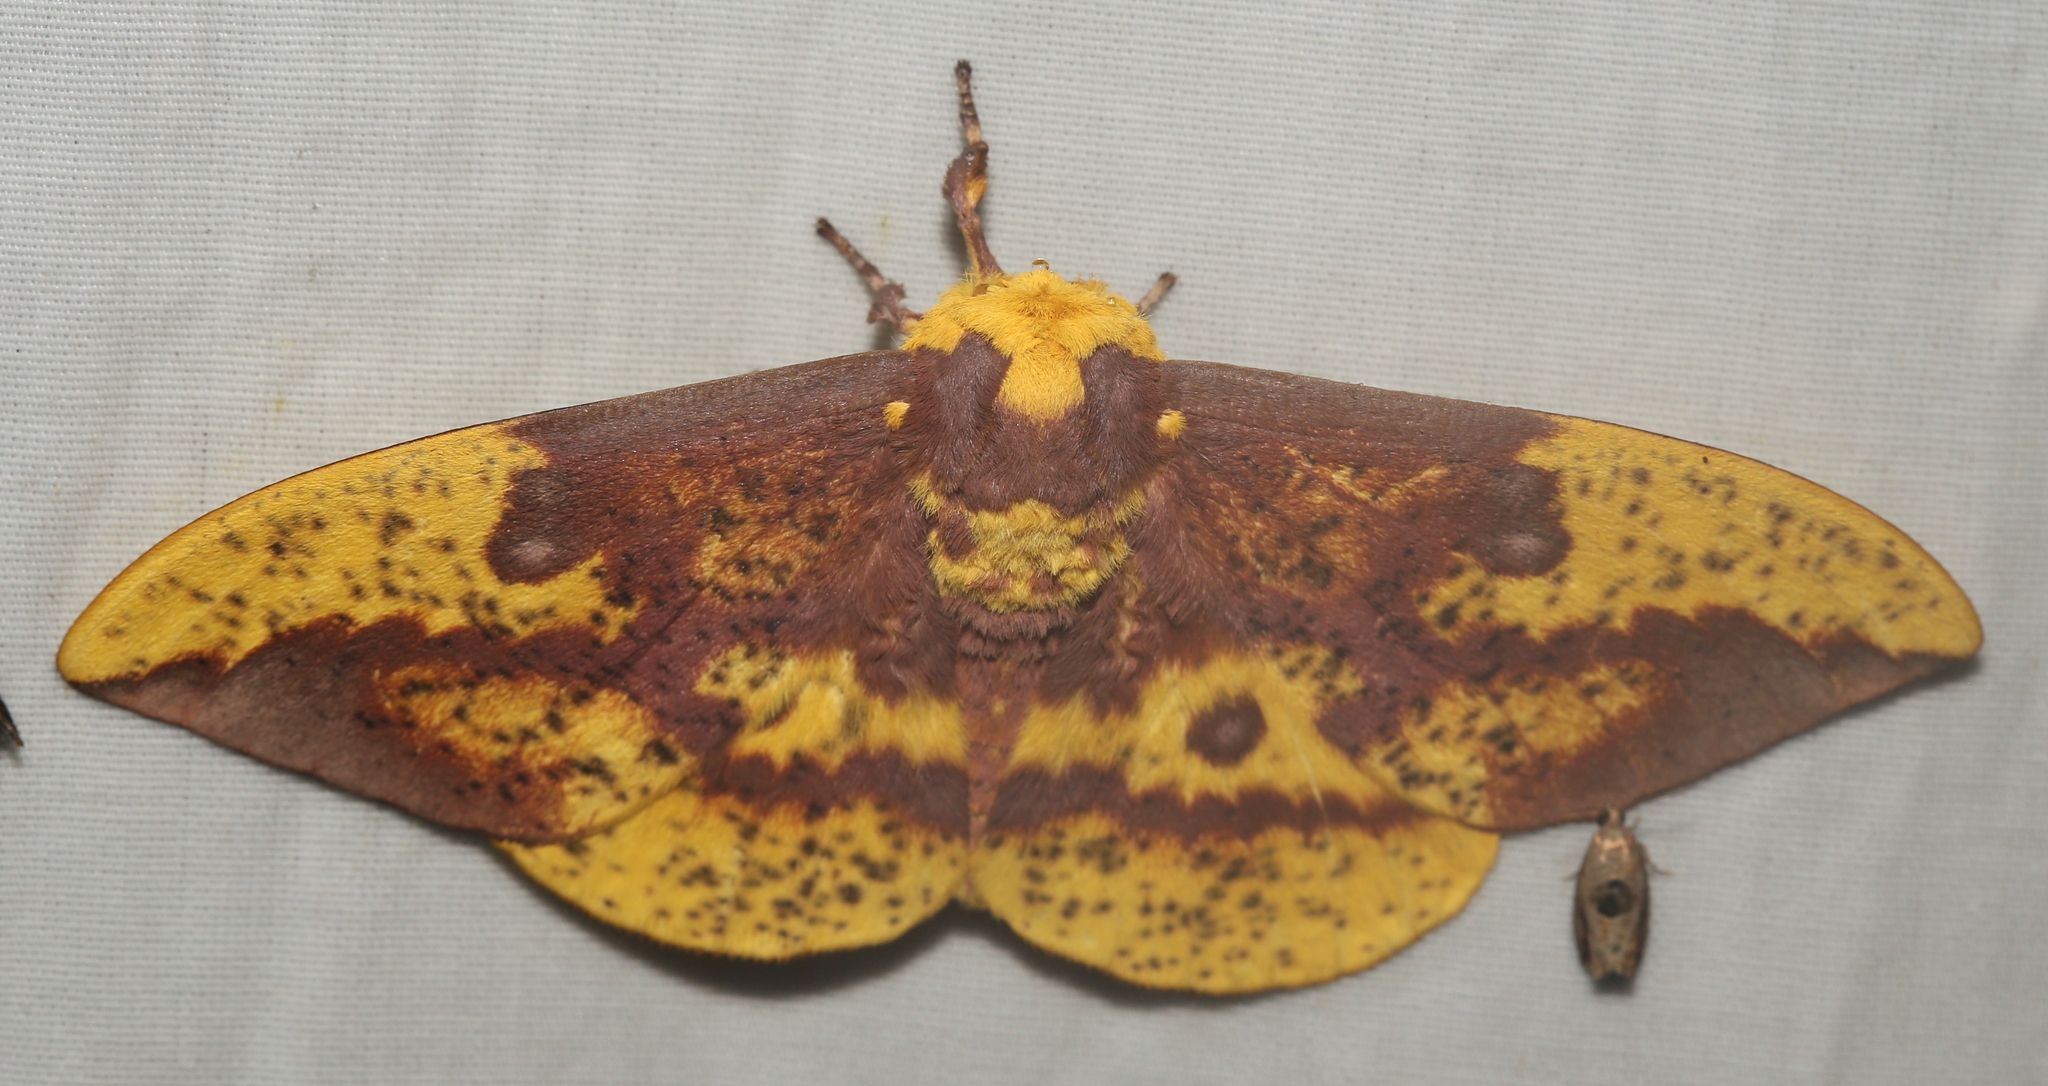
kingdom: Animalia
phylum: Arthropoda
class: Insecta
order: Lepidoptera
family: Saturniidae
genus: Eacles
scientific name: Eacles imperialis
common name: Imperial moth
